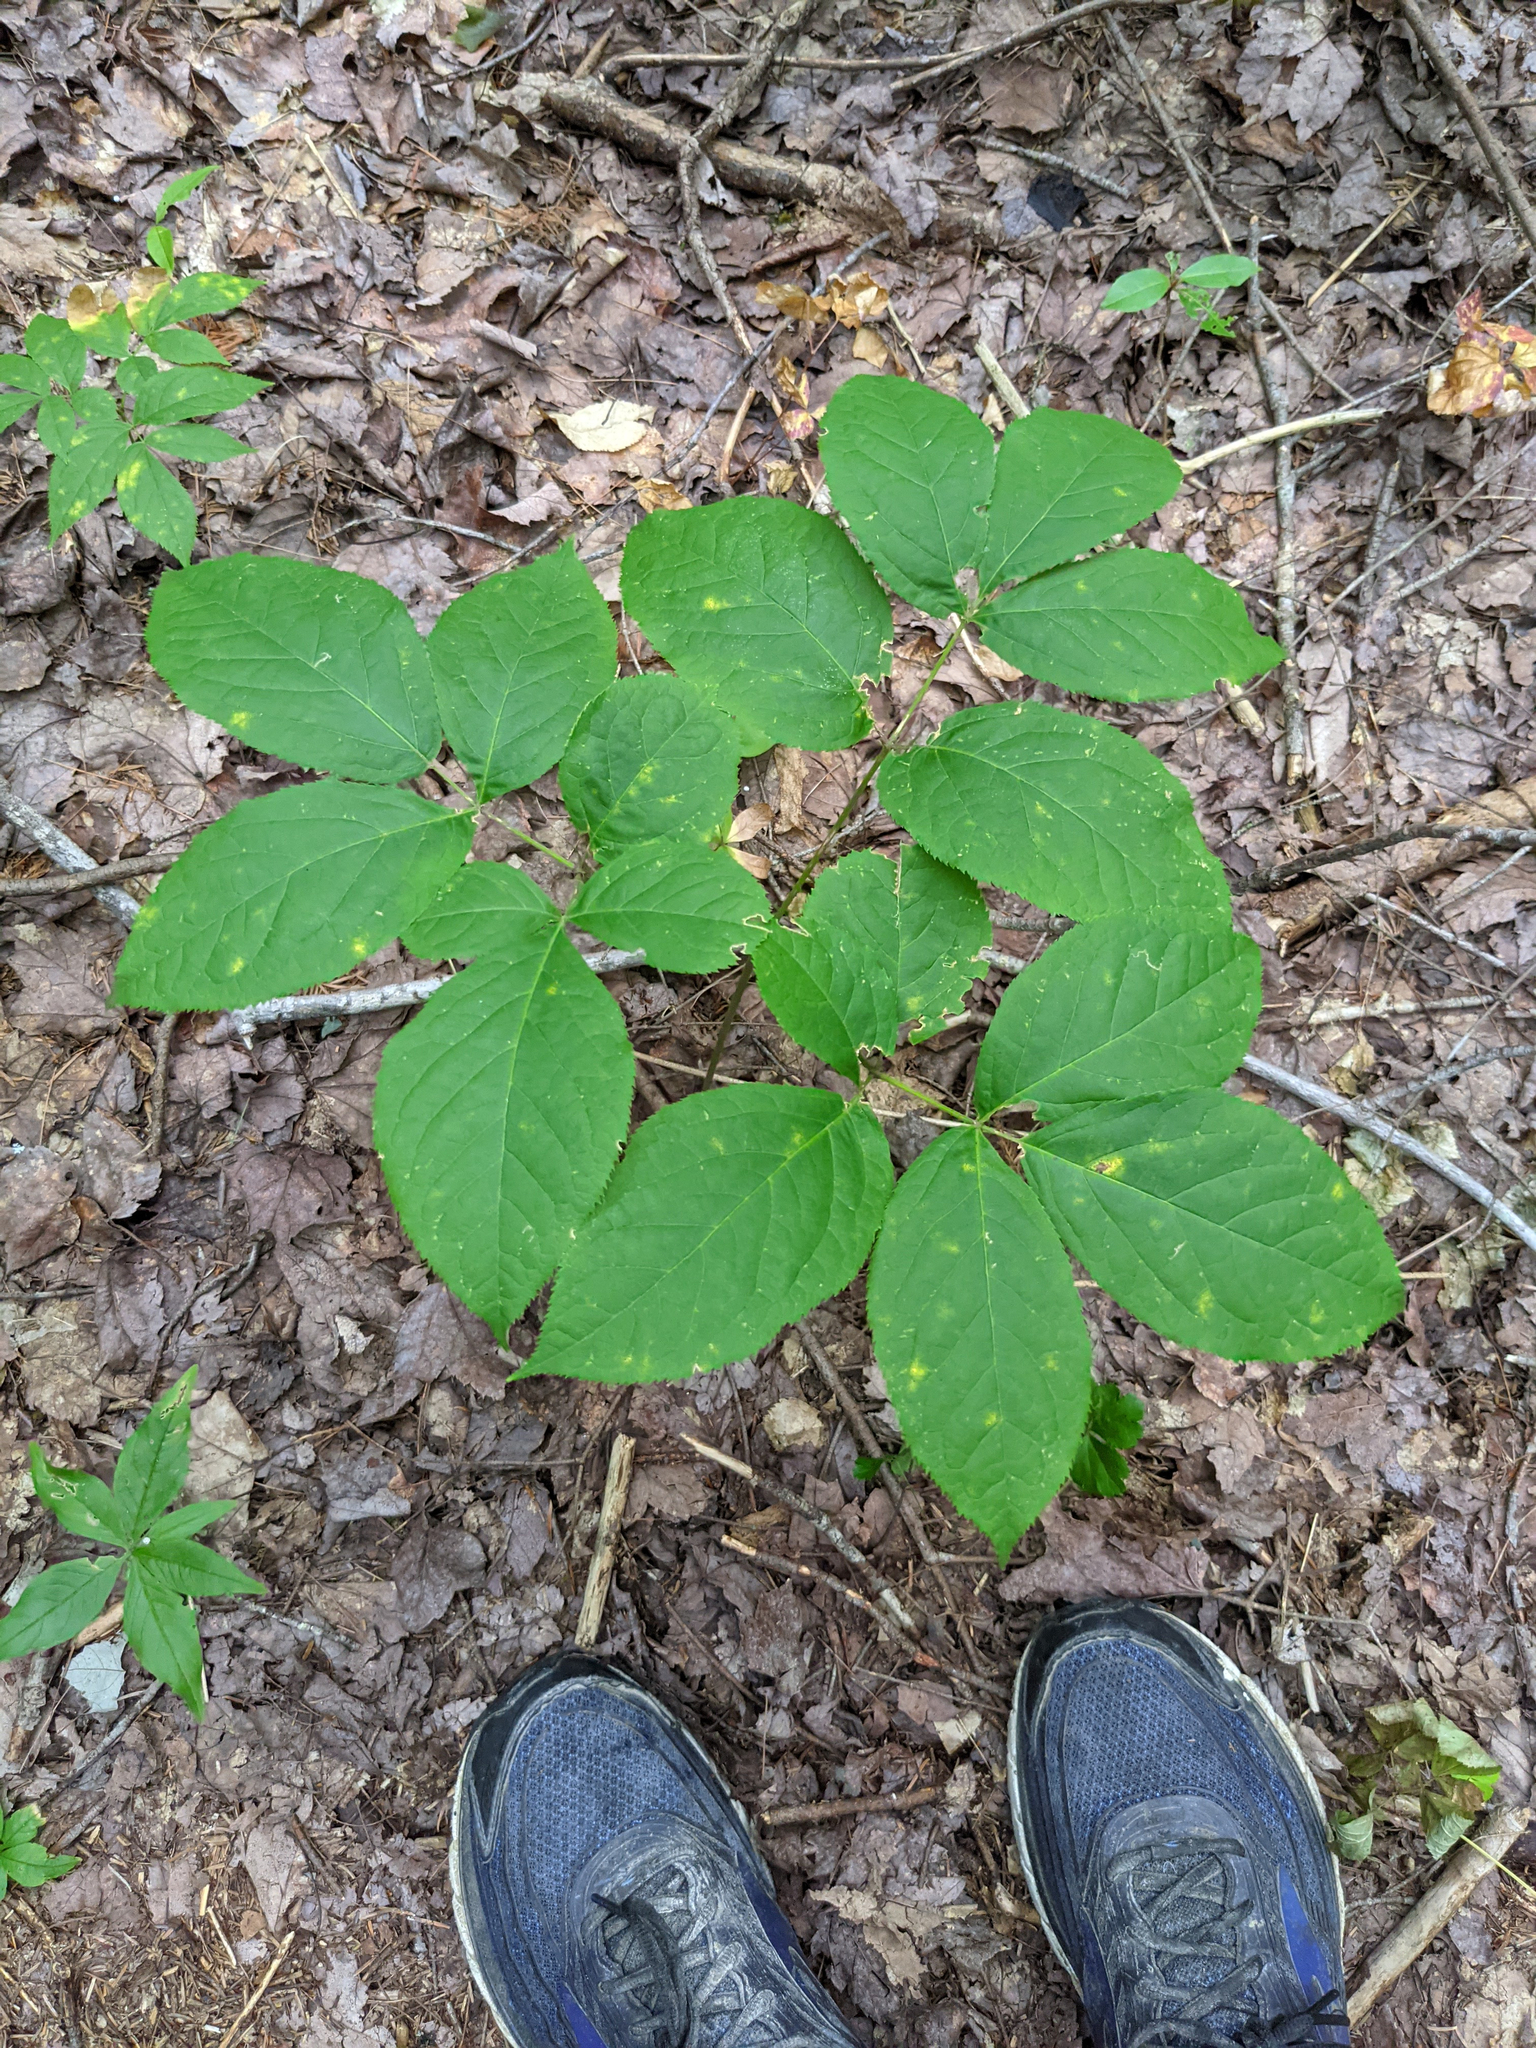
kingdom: Plantae
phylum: Tracheophyta
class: Magnoliopsida
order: Apiales
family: Araliaceae
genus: Aralia
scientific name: Aralia nudicaulis
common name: Wild sarsaparilla
